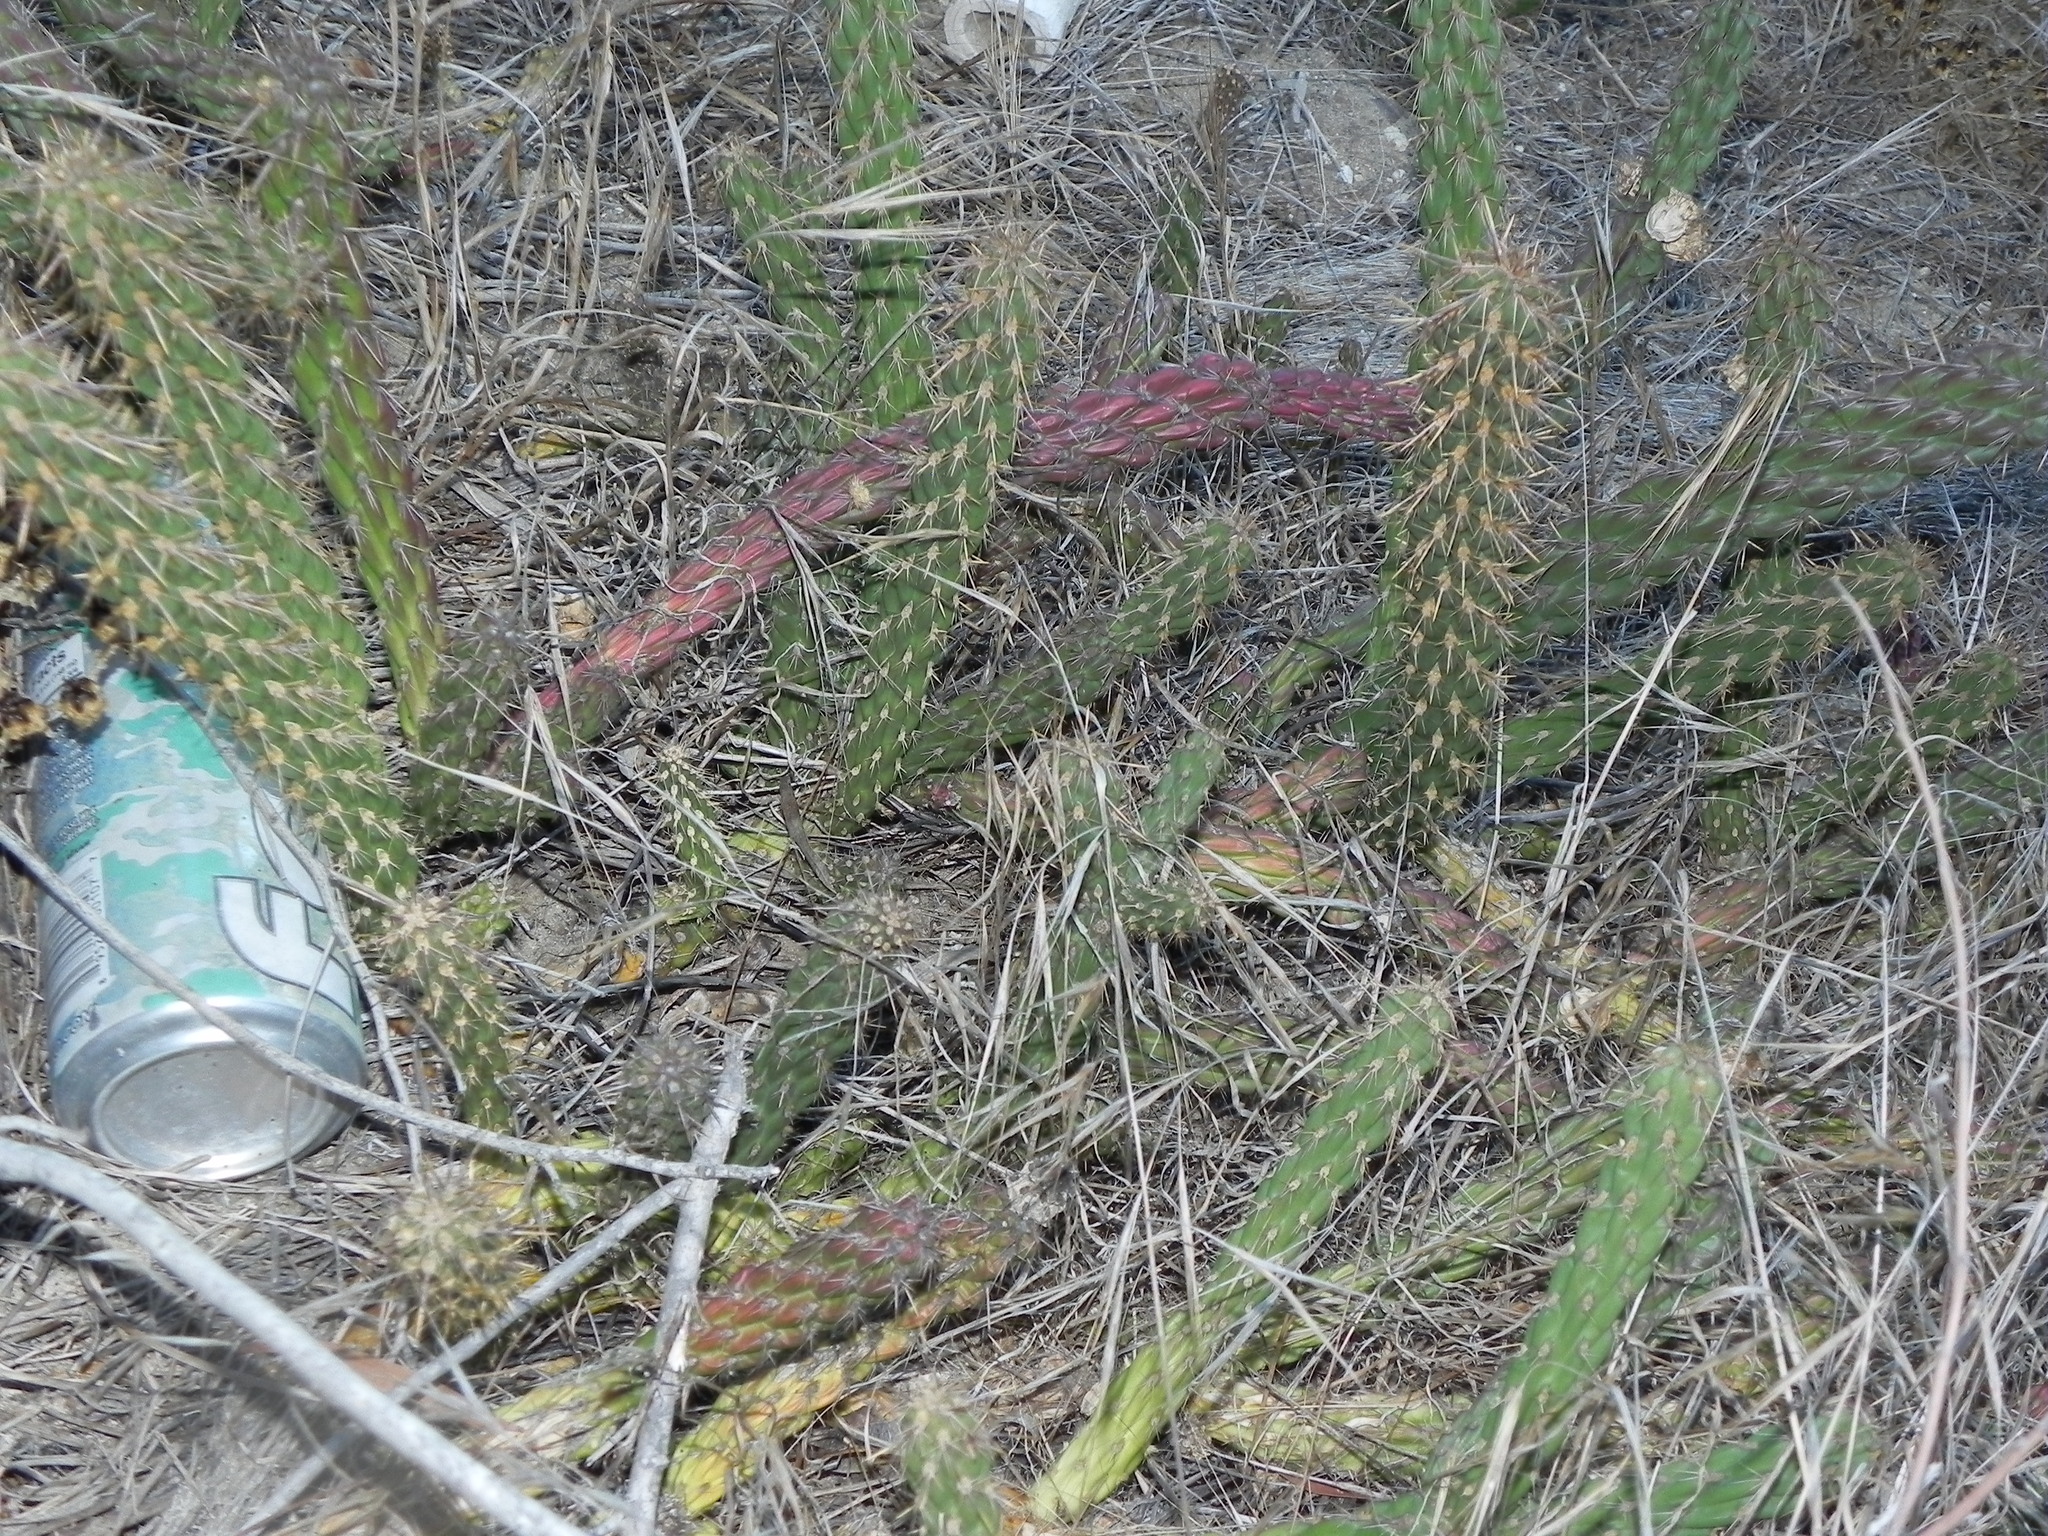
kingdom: Plantae
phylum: Tracheophyta
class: Magnoliopsida
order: Caryophyllales
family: Cactaceae
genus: Cylindropuntia
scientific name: Cylindropuntia californica
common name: Snake cholla
